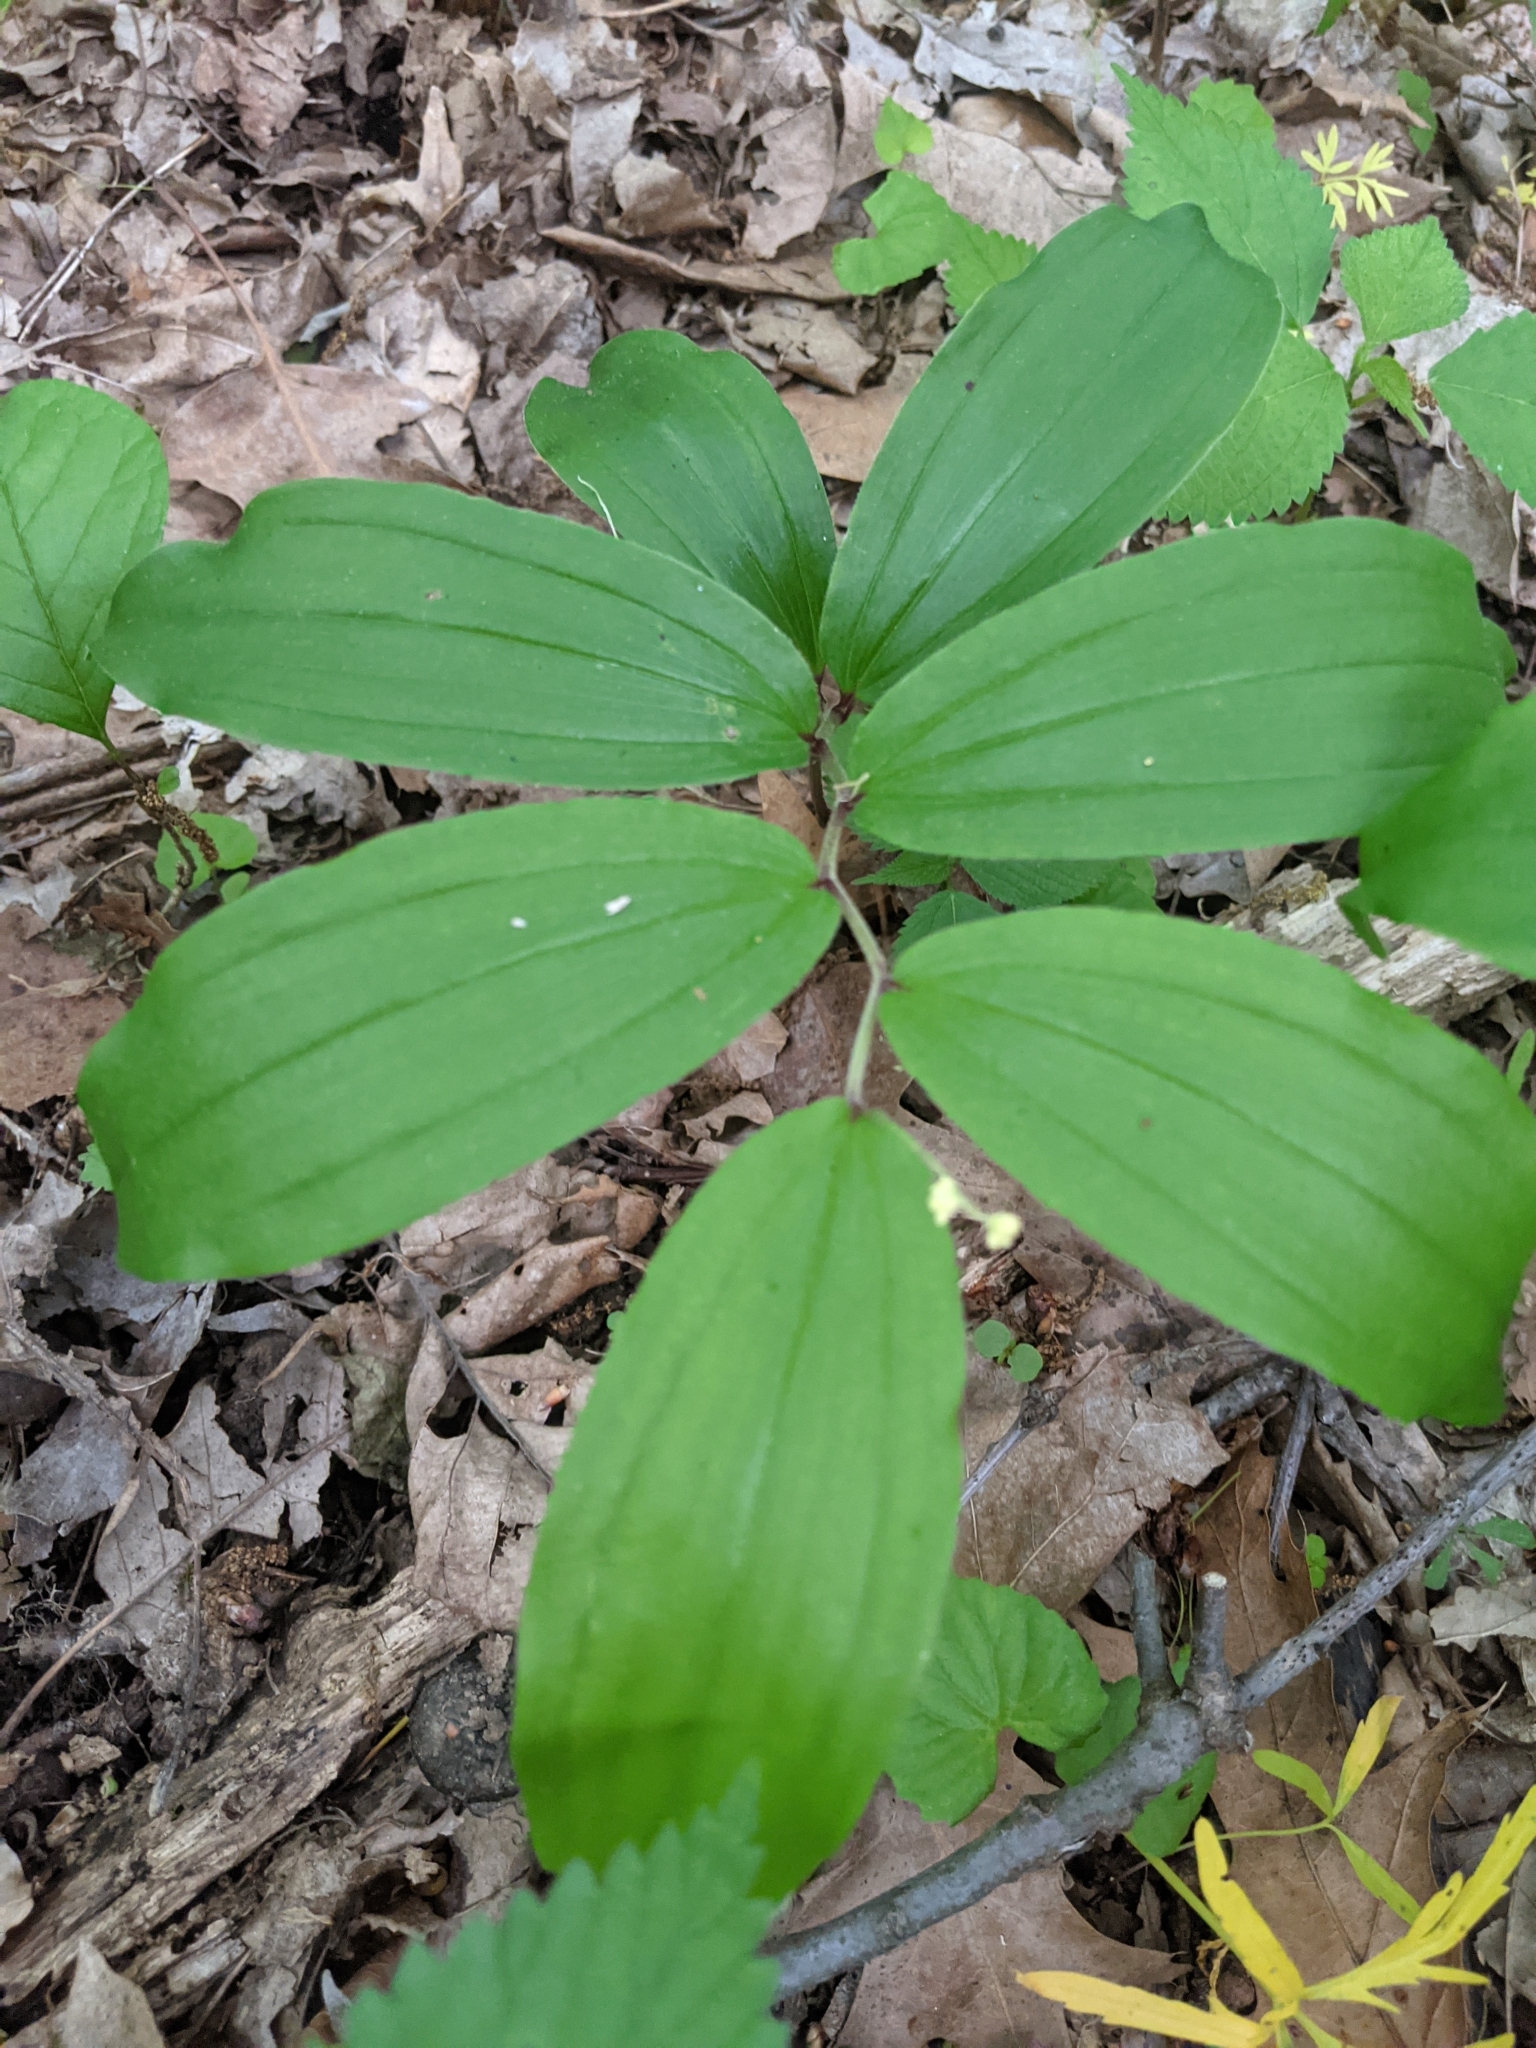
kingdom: Plantae
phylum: Tracheophyta
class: Liliopsida
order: Asparagales
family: Asparagaceae
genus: Maianthemum
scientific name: Maianthemum racemosum
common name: False spikenard
